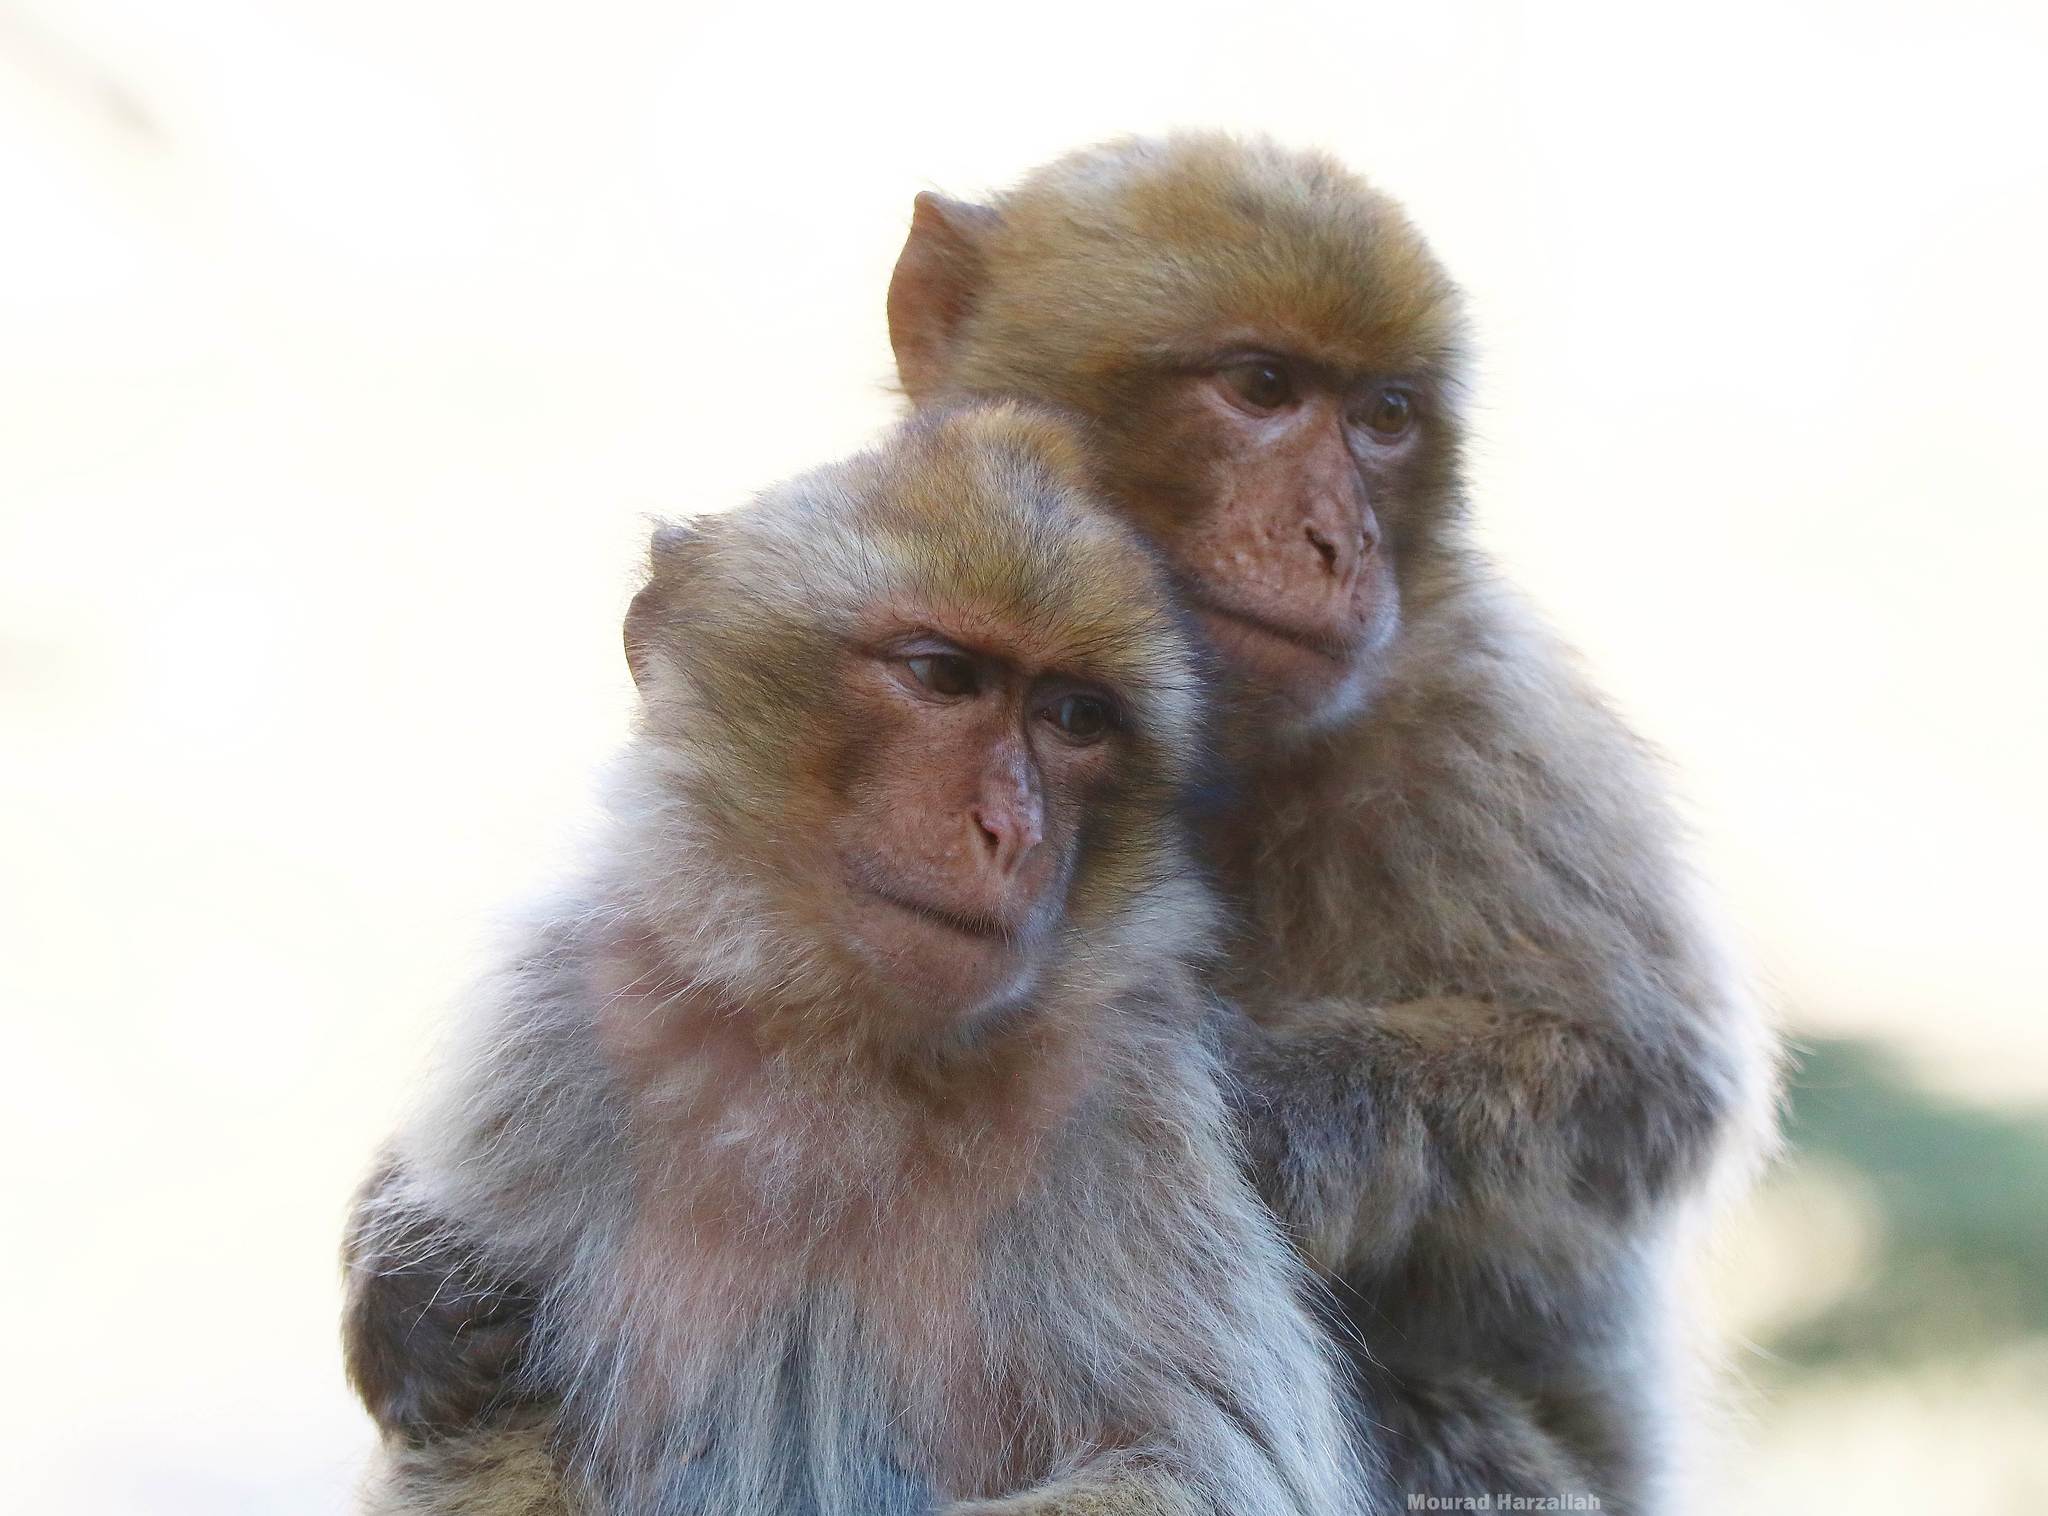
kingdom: Animalia
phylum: Chordata
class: Mammalia
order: Primates
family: Cercopithecidae
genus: Macaca
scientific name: Macaca sylvanus
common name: Barbary macaque
